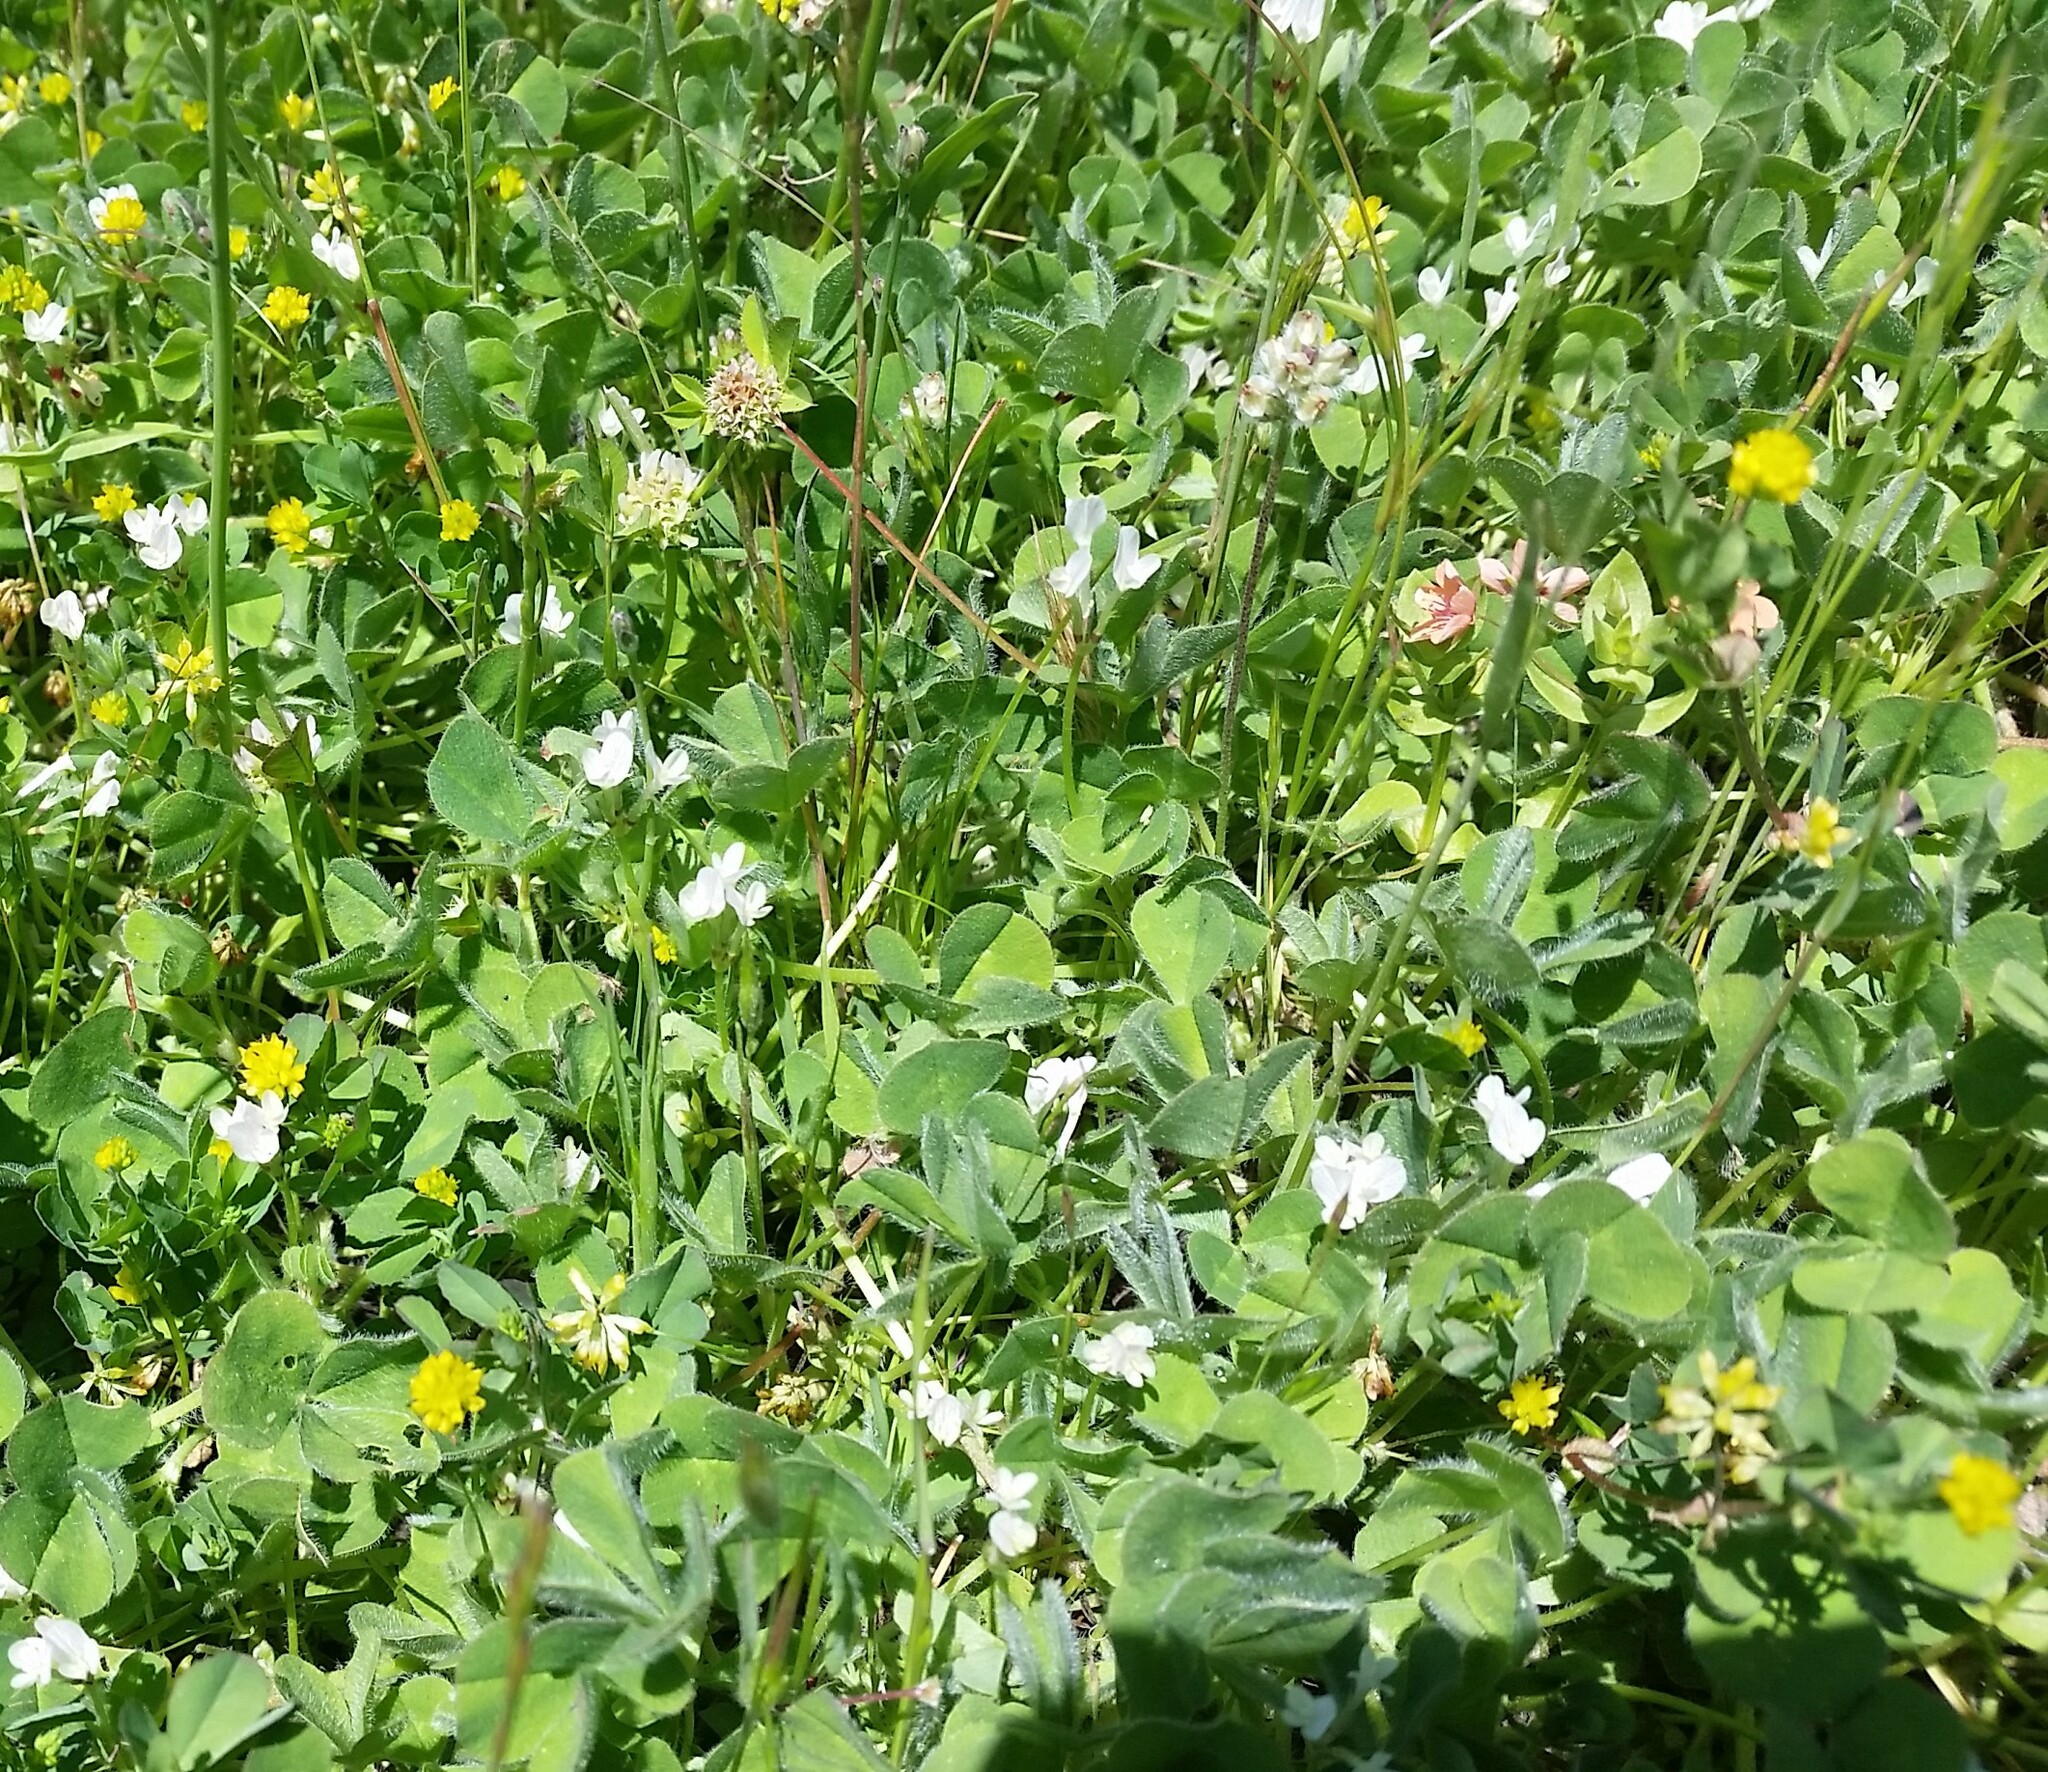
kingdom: Plantae
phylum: Tracheophyta
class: Magnoliopsida
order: Fabales
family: Fabaceae
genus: Trifolium
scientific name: Trifolium subterraneum
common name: Subterranean clover
